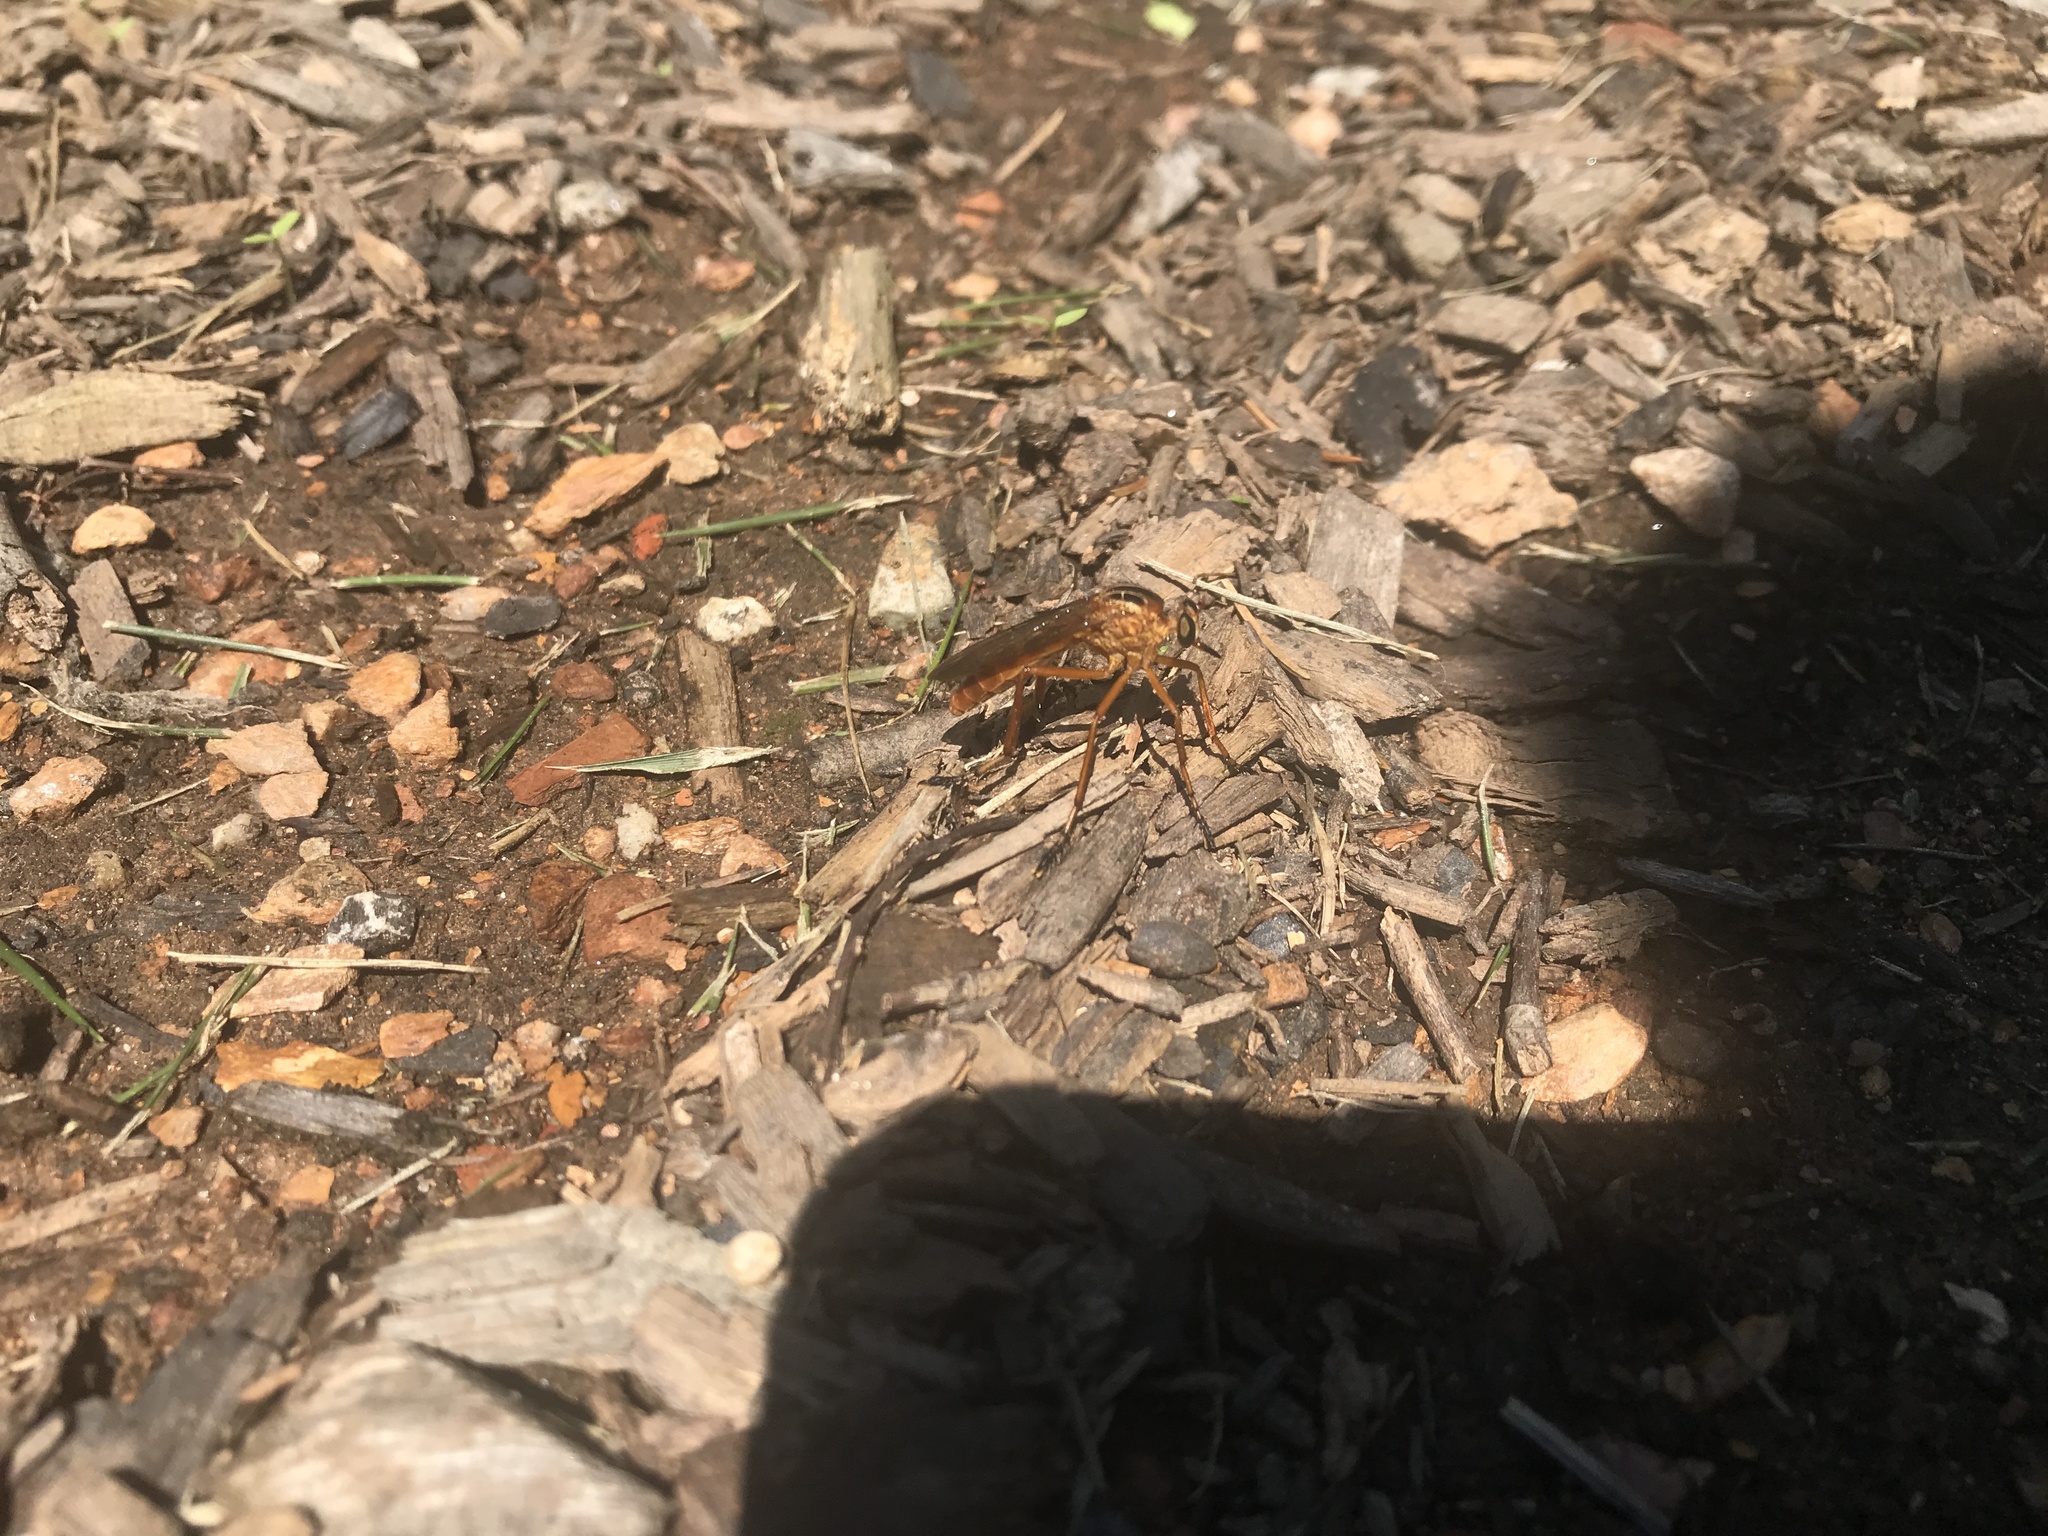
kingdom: Animalia
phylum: Arthropoda
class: Insecta
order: Diptera
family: Asilidae
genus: Diogmites
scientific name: Diogmites neoternatus
